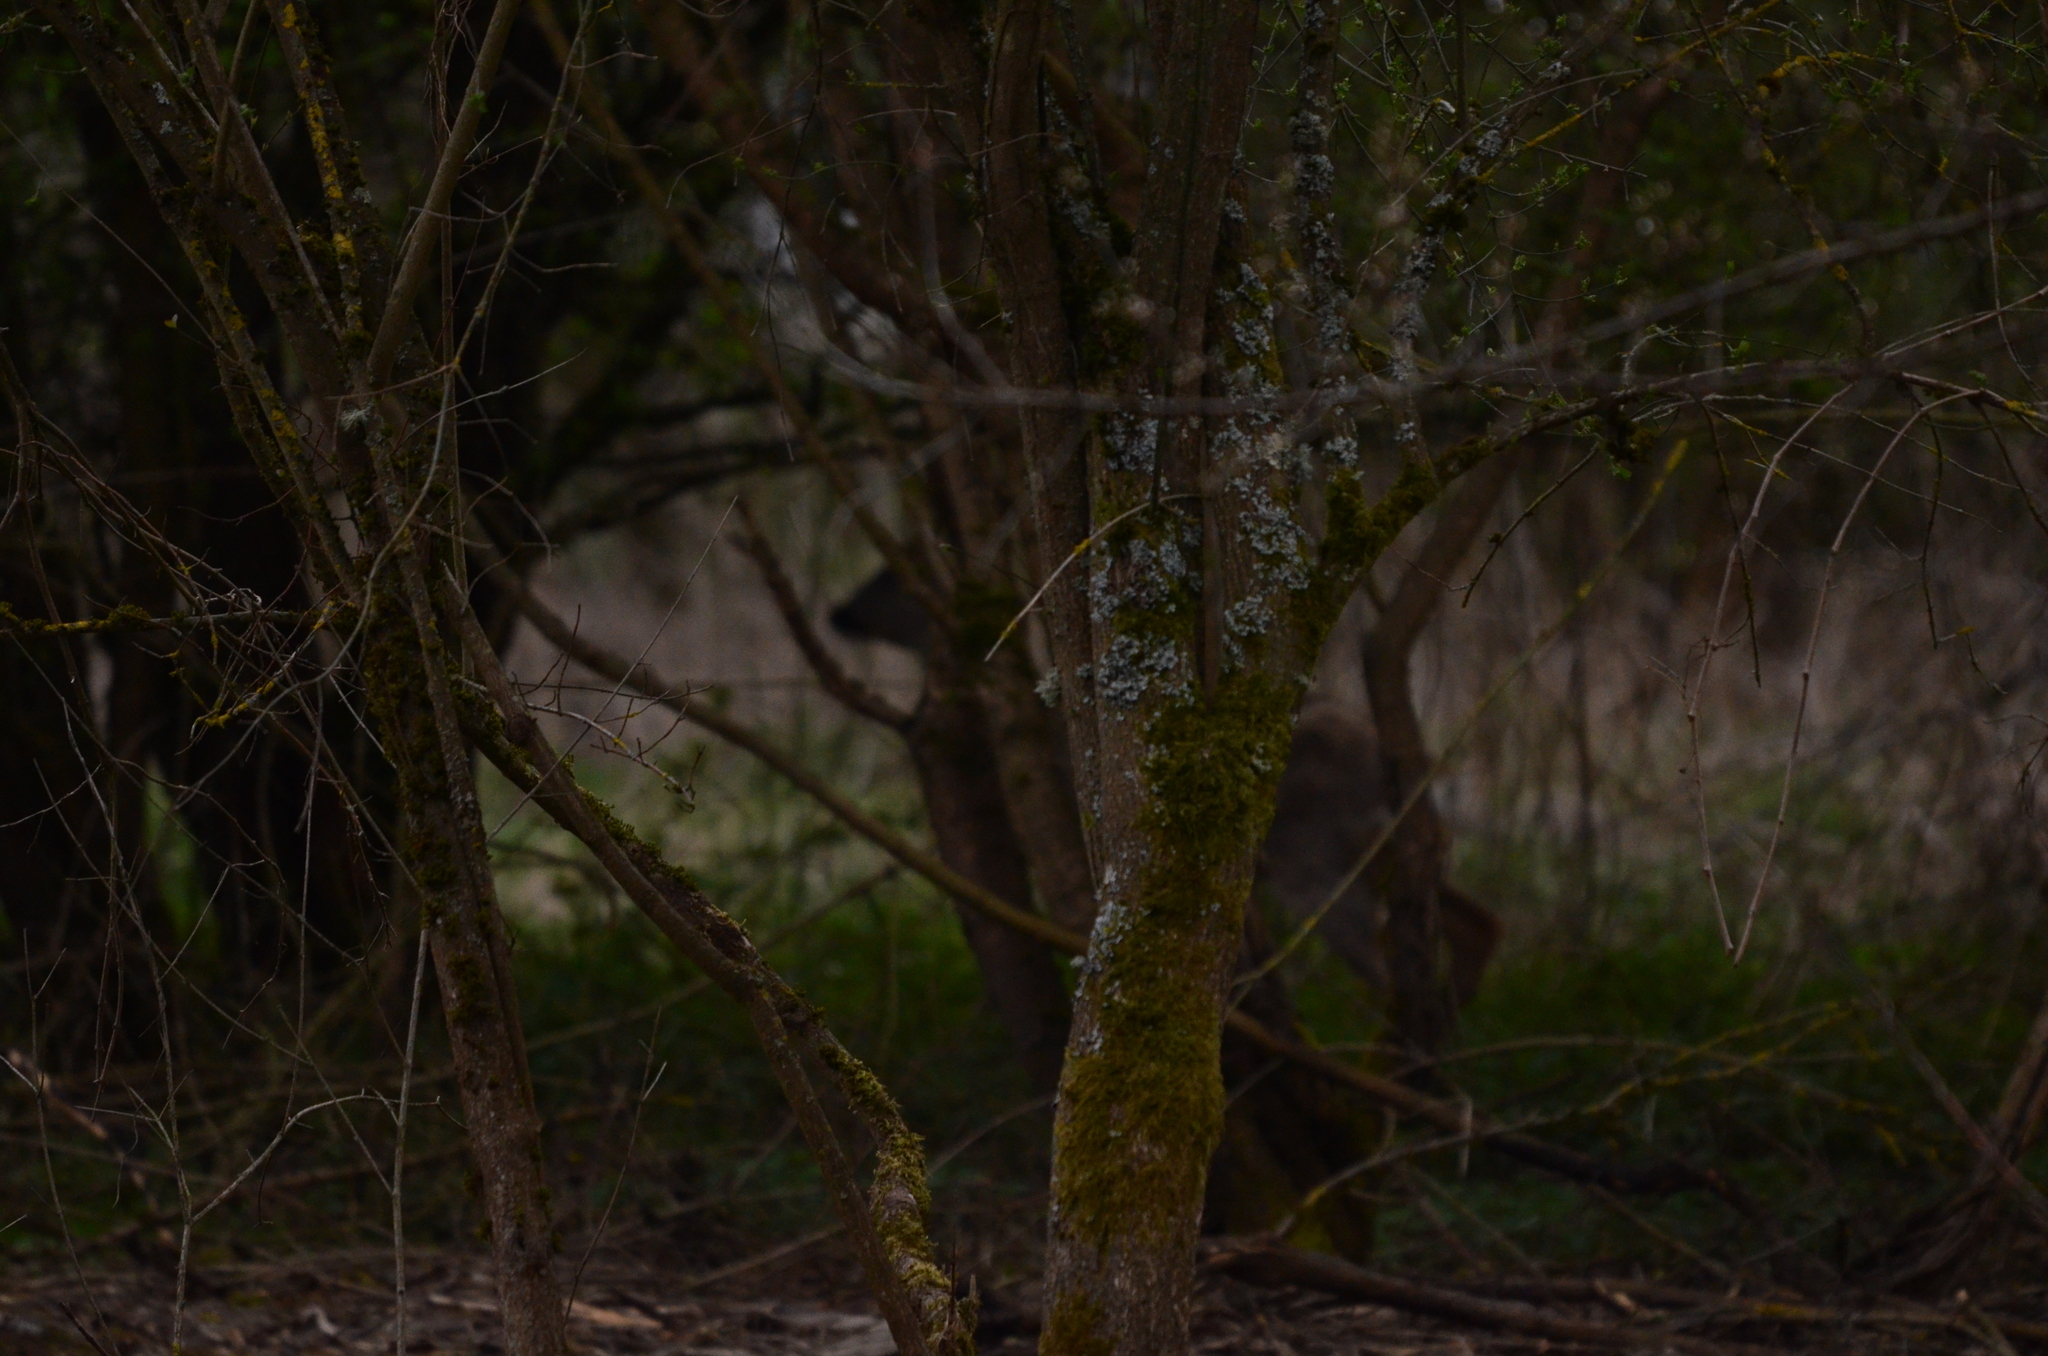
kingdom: Animalia
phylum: Chordata
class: Mammalia
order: Artiodactyla
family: Cervidae
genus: Capreolus
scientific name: Capreolus capreolus
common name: Western roe deer
